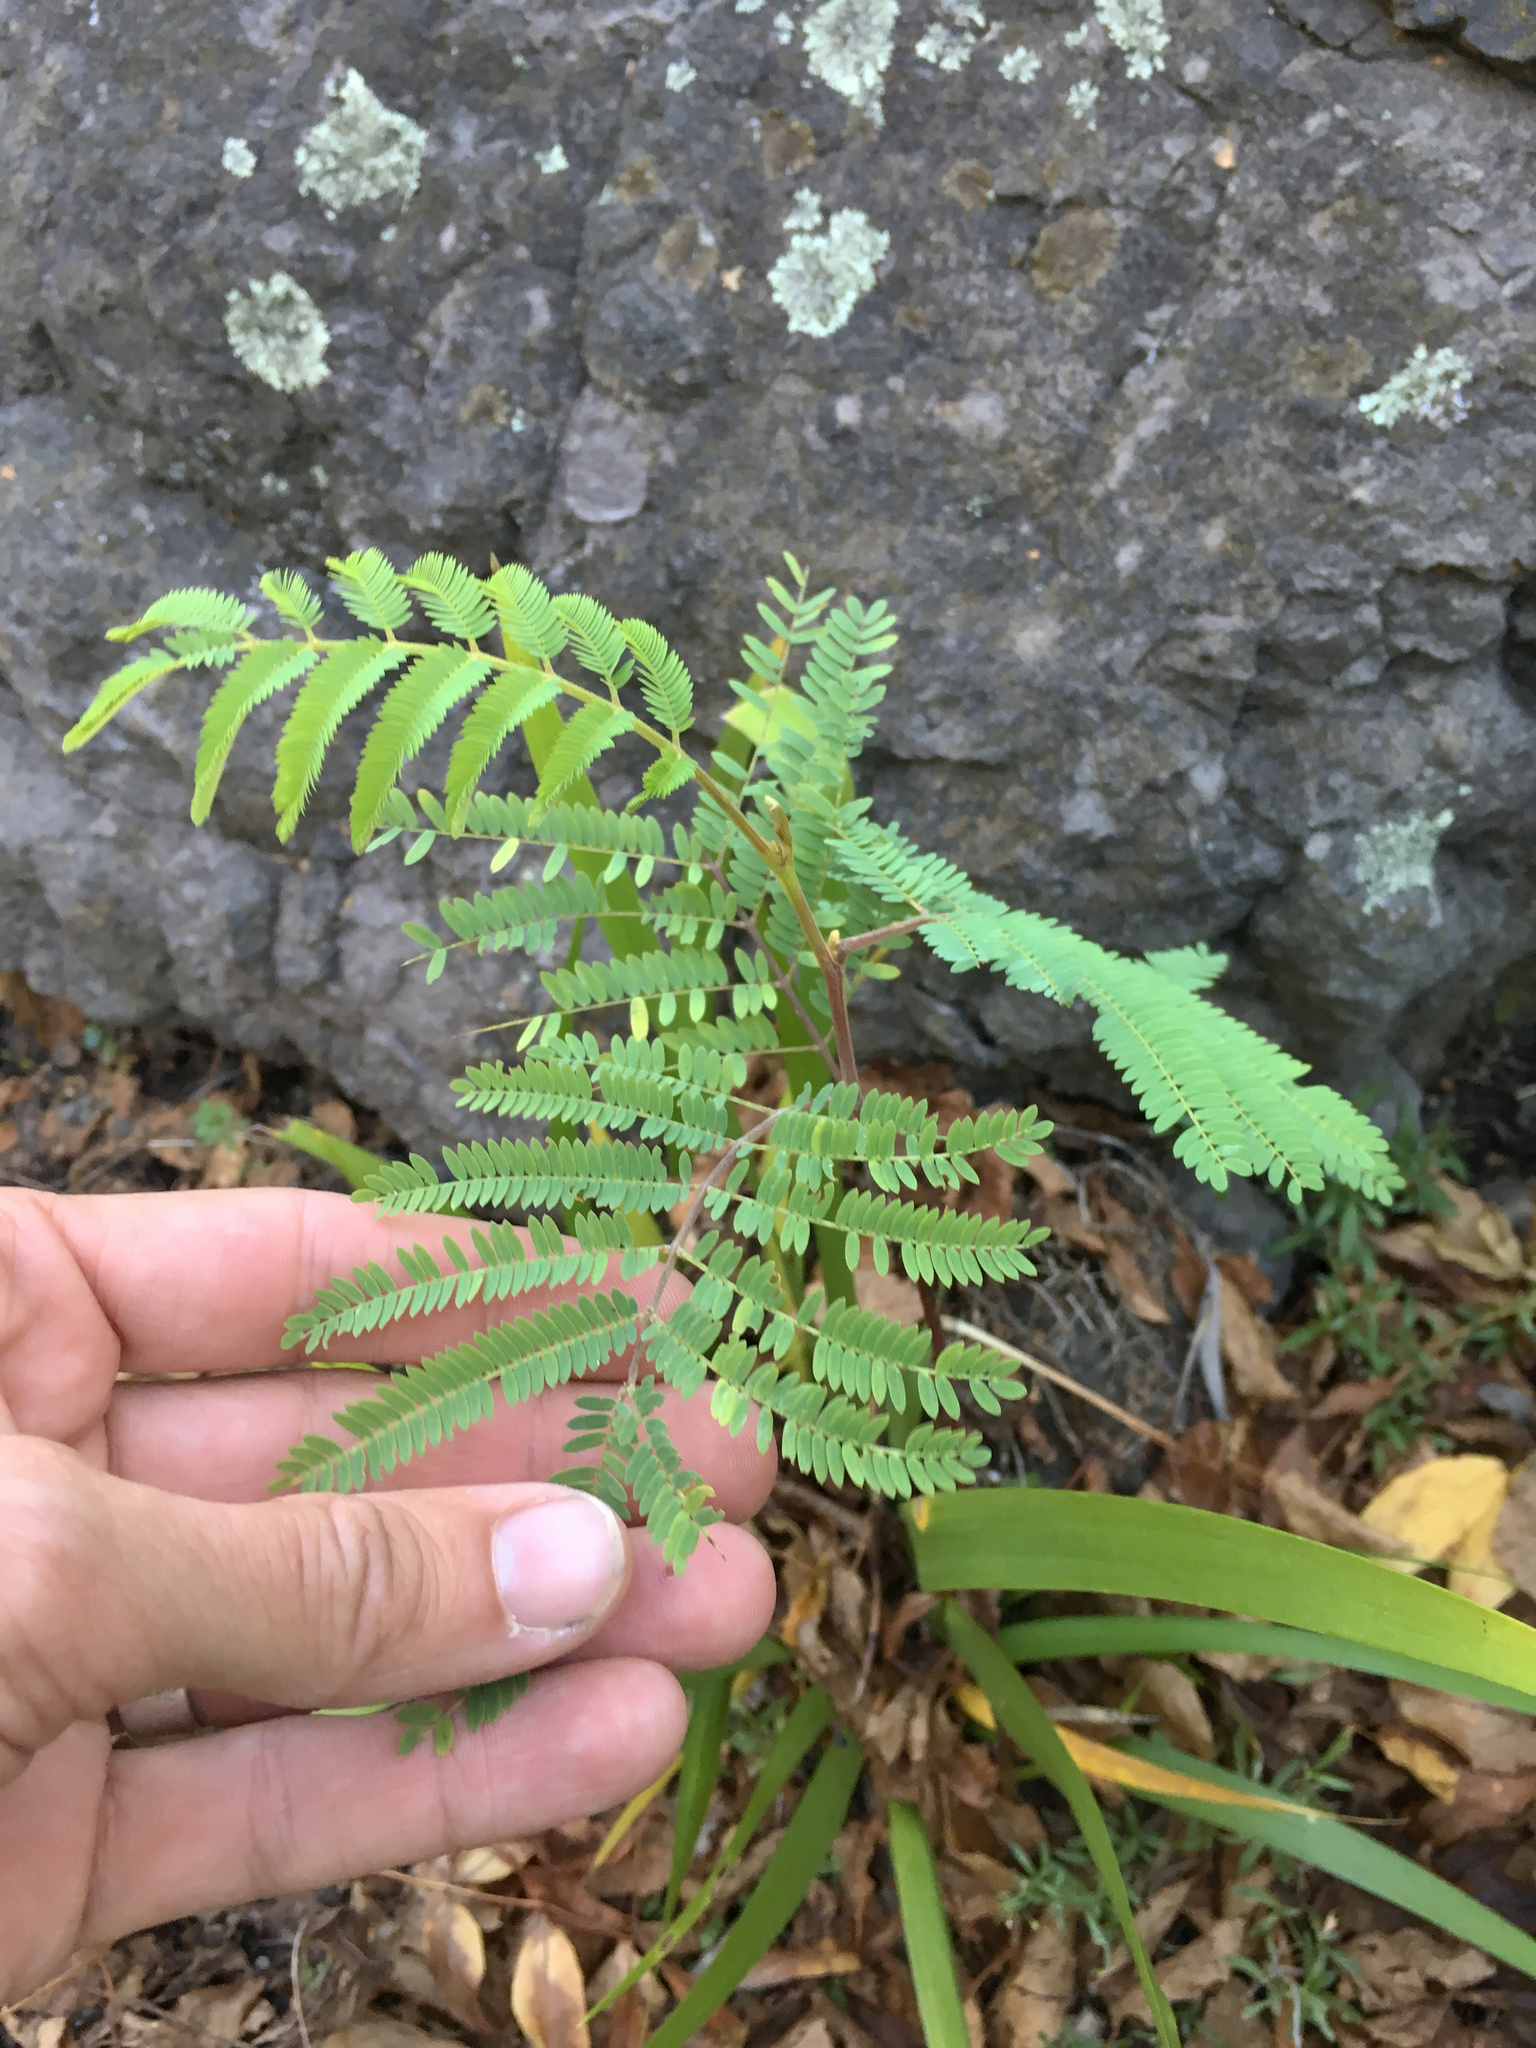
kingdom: Plantae
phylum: Tracheophyta
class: Magnoliopsida
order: Fabales
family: Fabaceae
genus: Paraserianthes
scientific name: Paraserianthes lophantha
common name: Plume albizia
